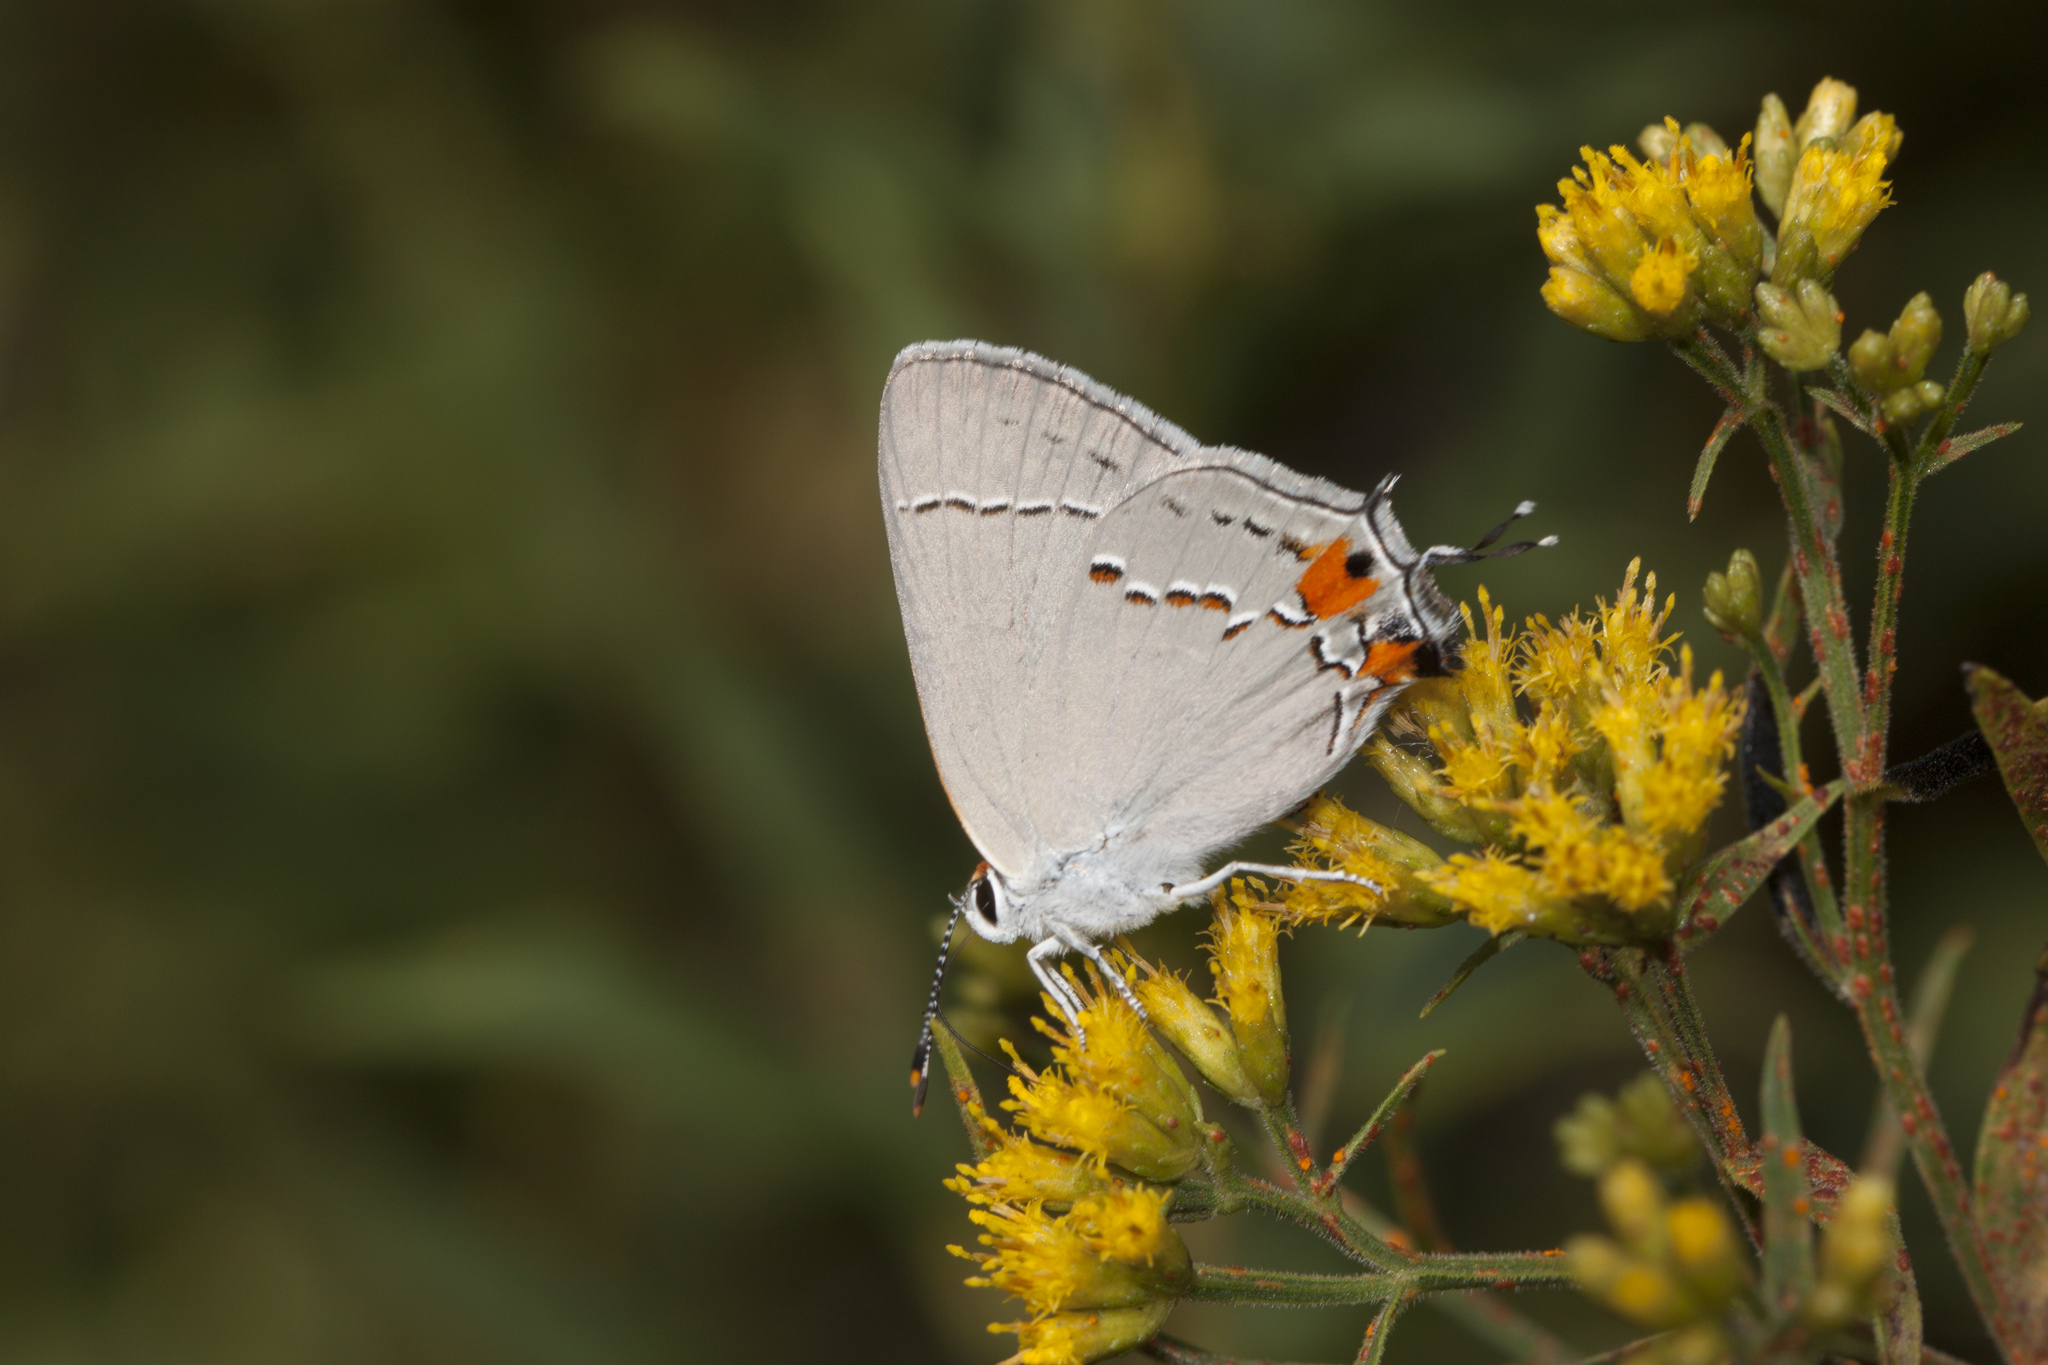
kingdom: Animalia
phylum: Arthropoda
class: Insecta
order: Lepidoptera
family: Lycaenidae
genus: Strymon
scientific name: Strymon melinus
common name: Gray hairstreak
